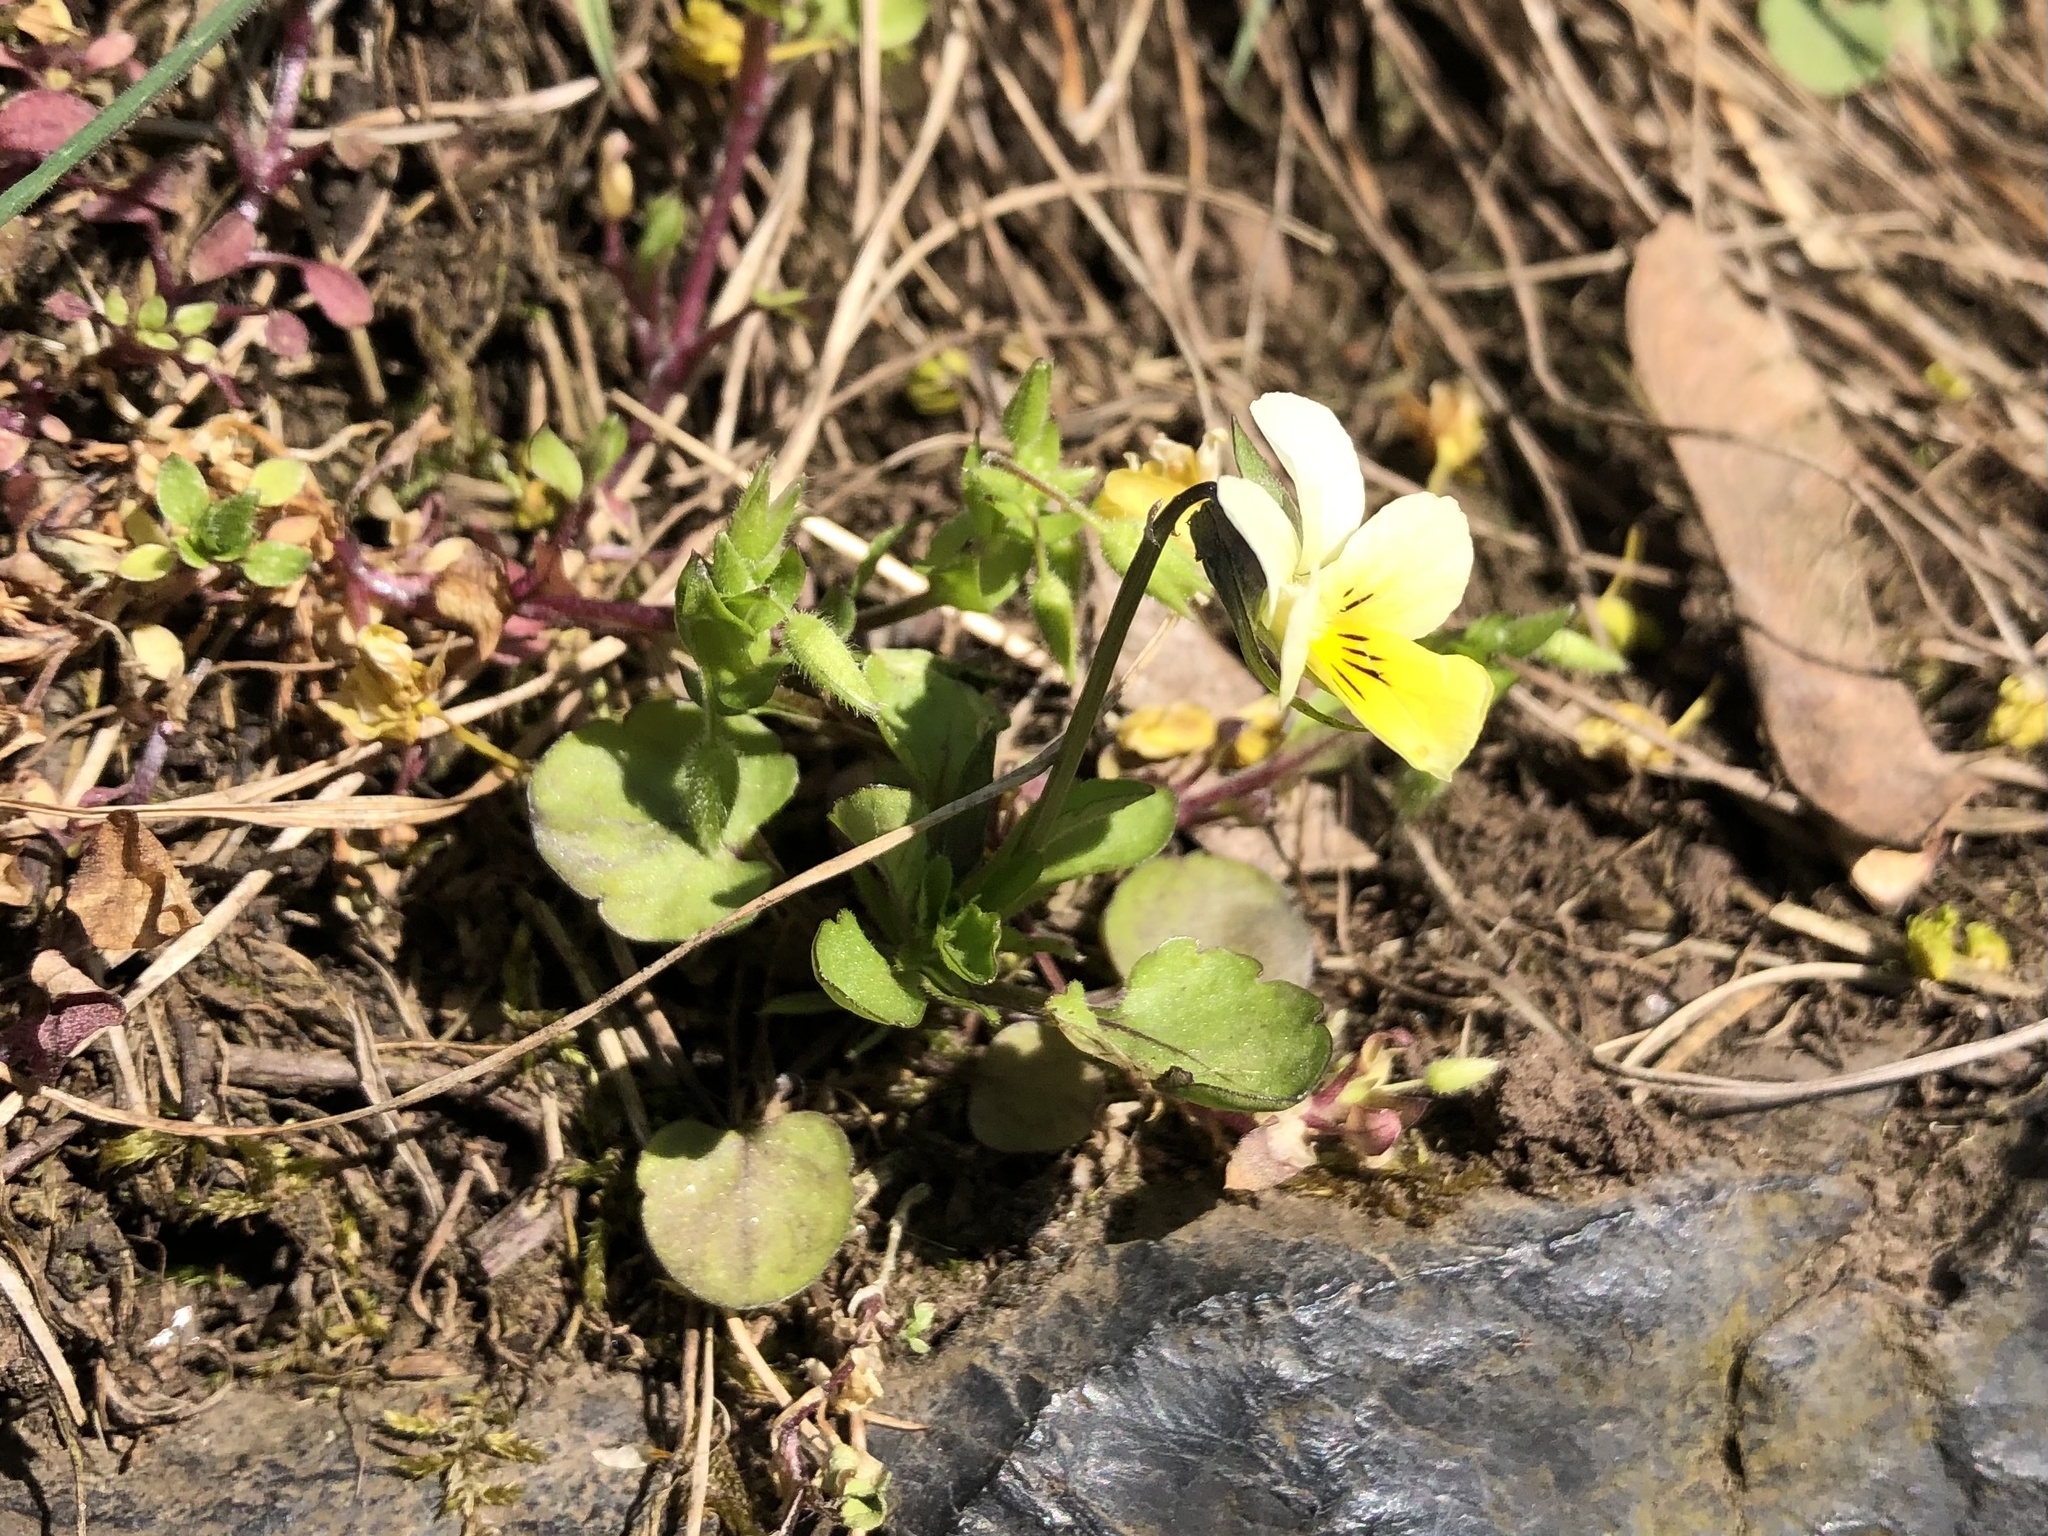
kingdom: Plantae
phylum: Tracheophyta
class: Magnoliopsida
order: Malpighiales
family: Violaceae
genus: Viola
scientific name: Viola arvensis
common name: Field pansy
